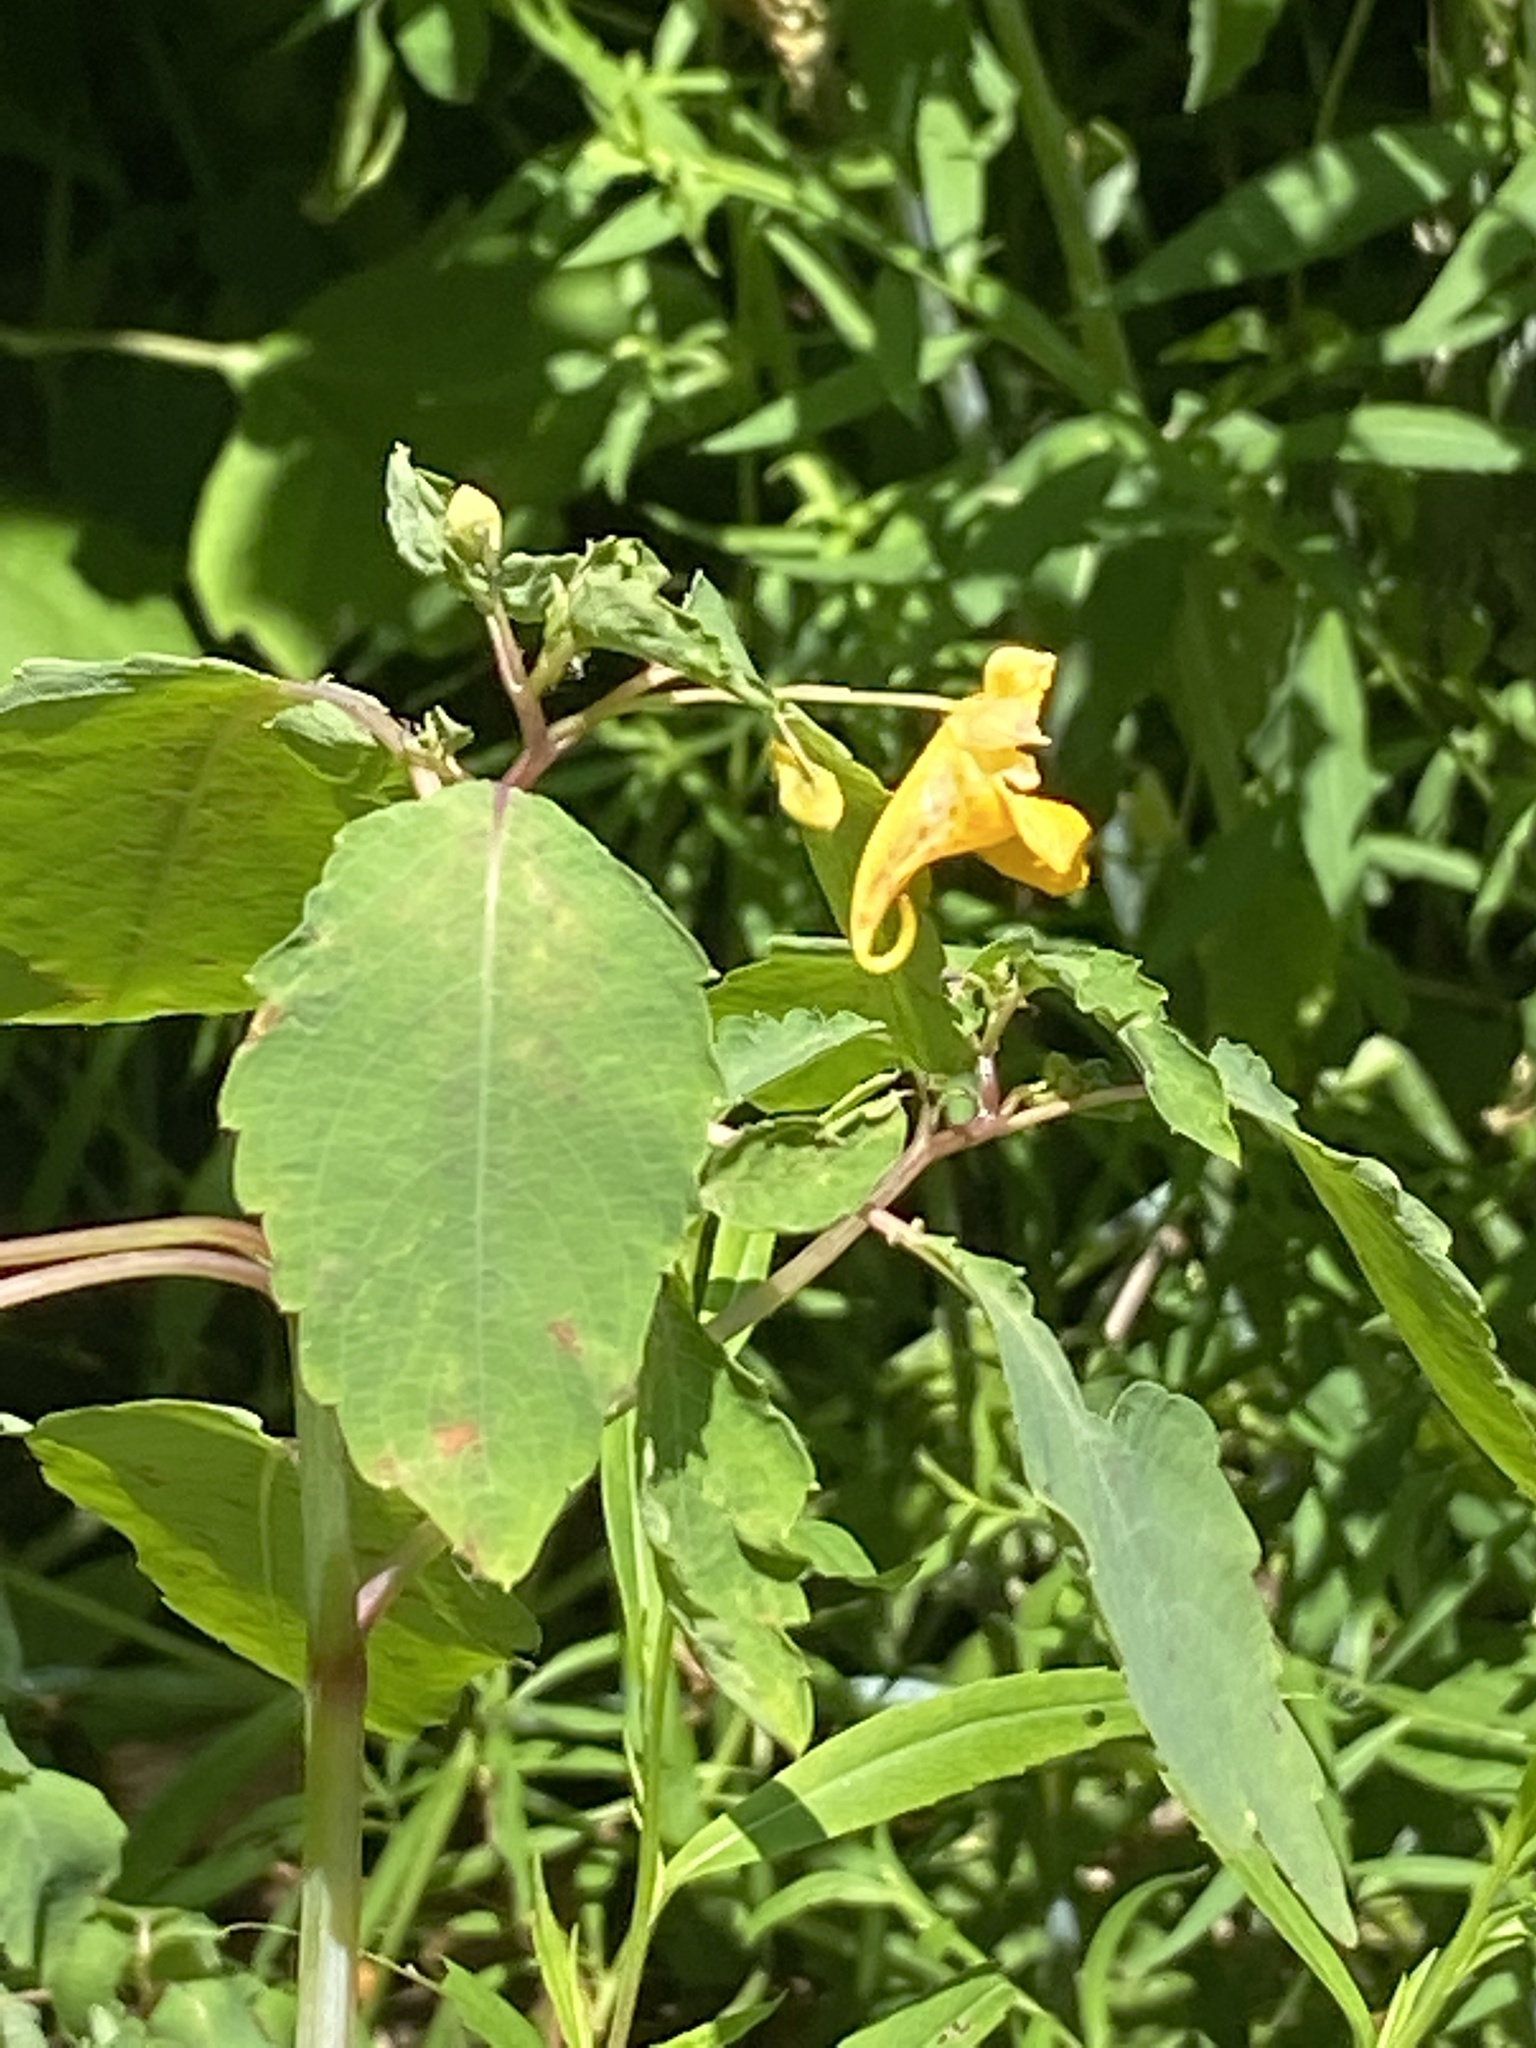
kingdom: Plantae
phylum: Tracheophyta
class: Magnoliopsida
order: Ericales
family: Balsaminaceae
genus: Impatiens
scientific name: Impatiens capensis
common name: Orange balsam
